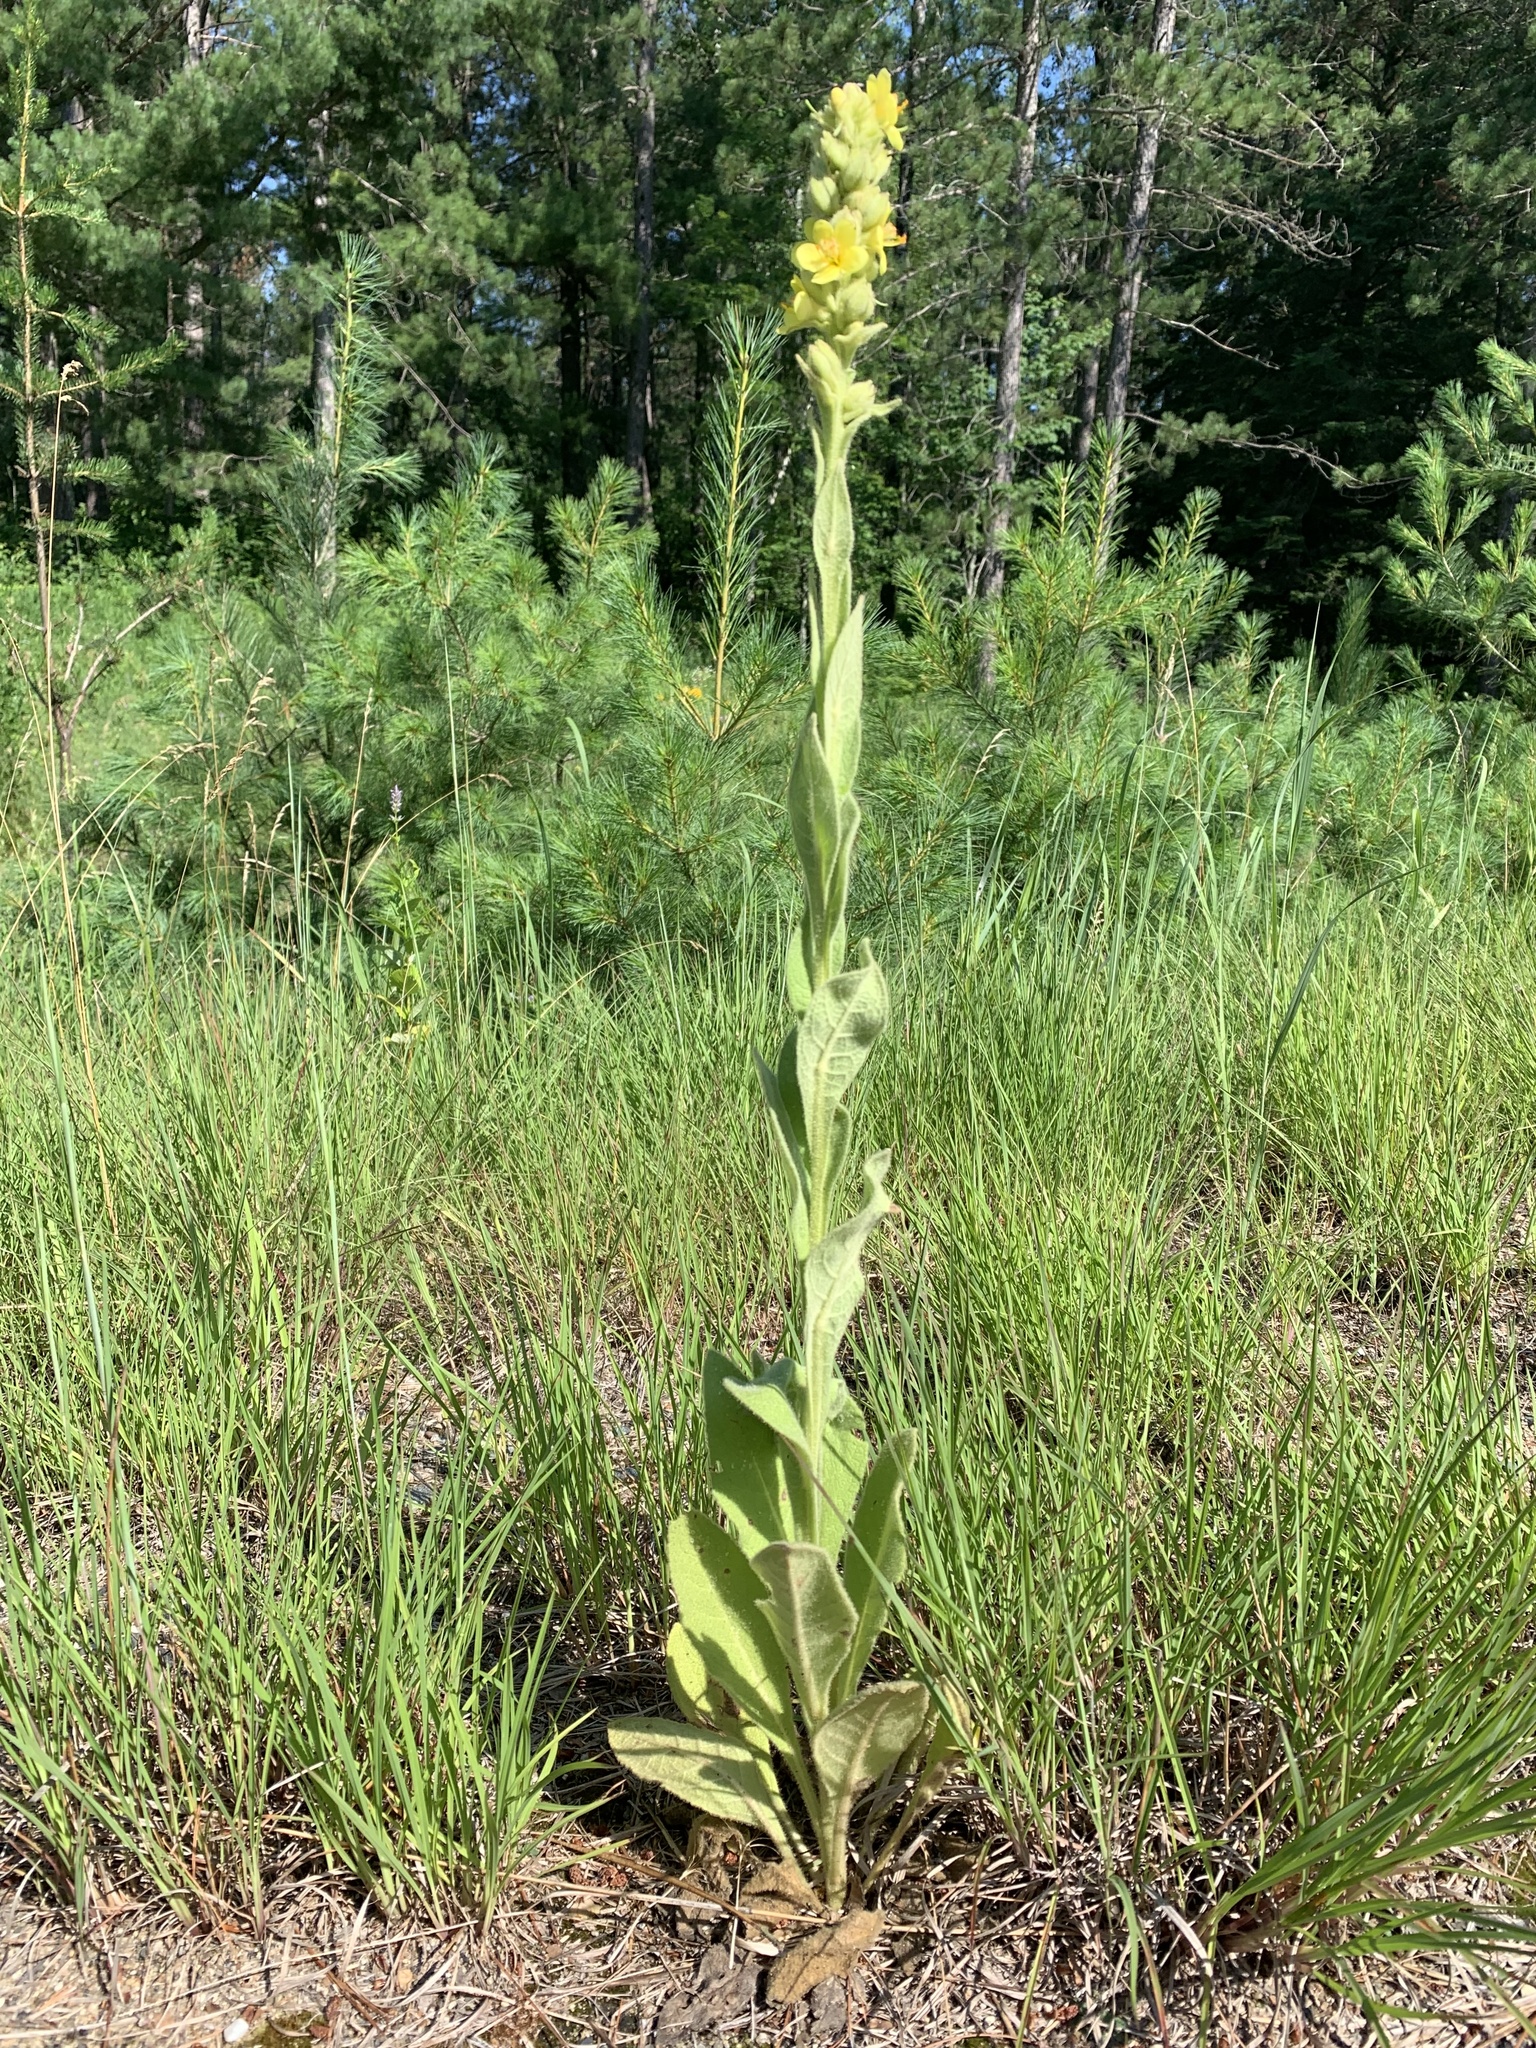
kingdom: Plantae
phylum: Tracheophyta
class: Magnoliopsida
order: Lamiales
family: Scrophulariaceae
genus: Verbascum
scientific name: Verbascum thapsus
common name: Common mullein
